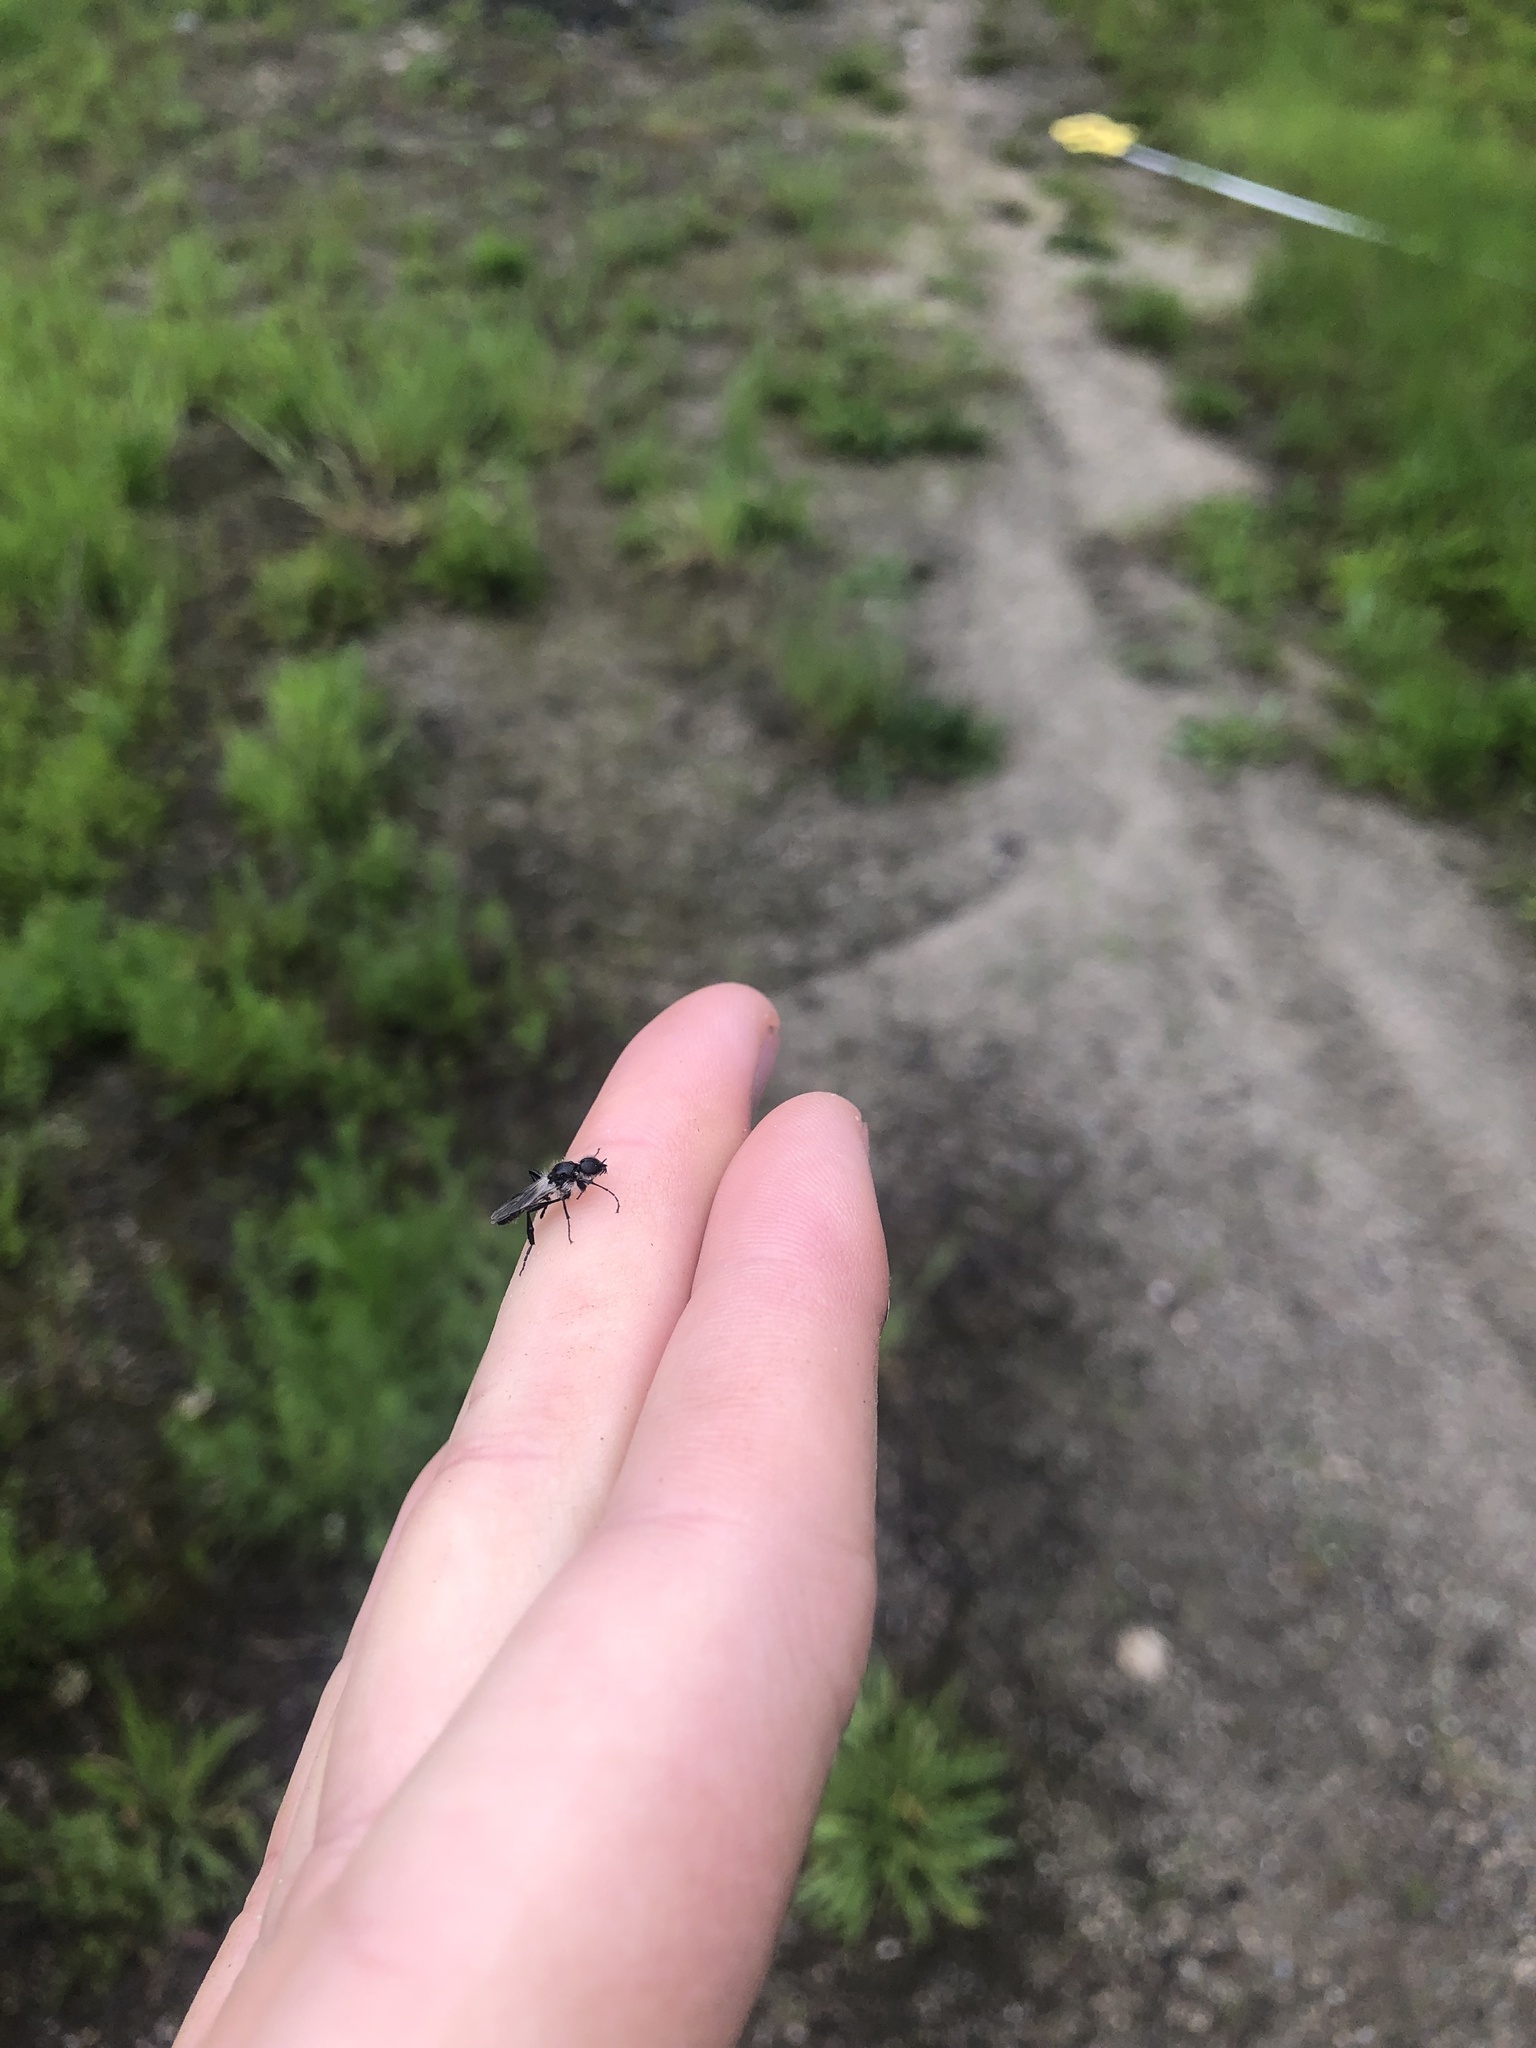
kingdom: Animalia
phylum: Arthropoda
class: Insecta
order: Diptera
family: Bibionidae
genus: Bibio
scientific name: Bibio albipennis
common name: White-winged march fly
